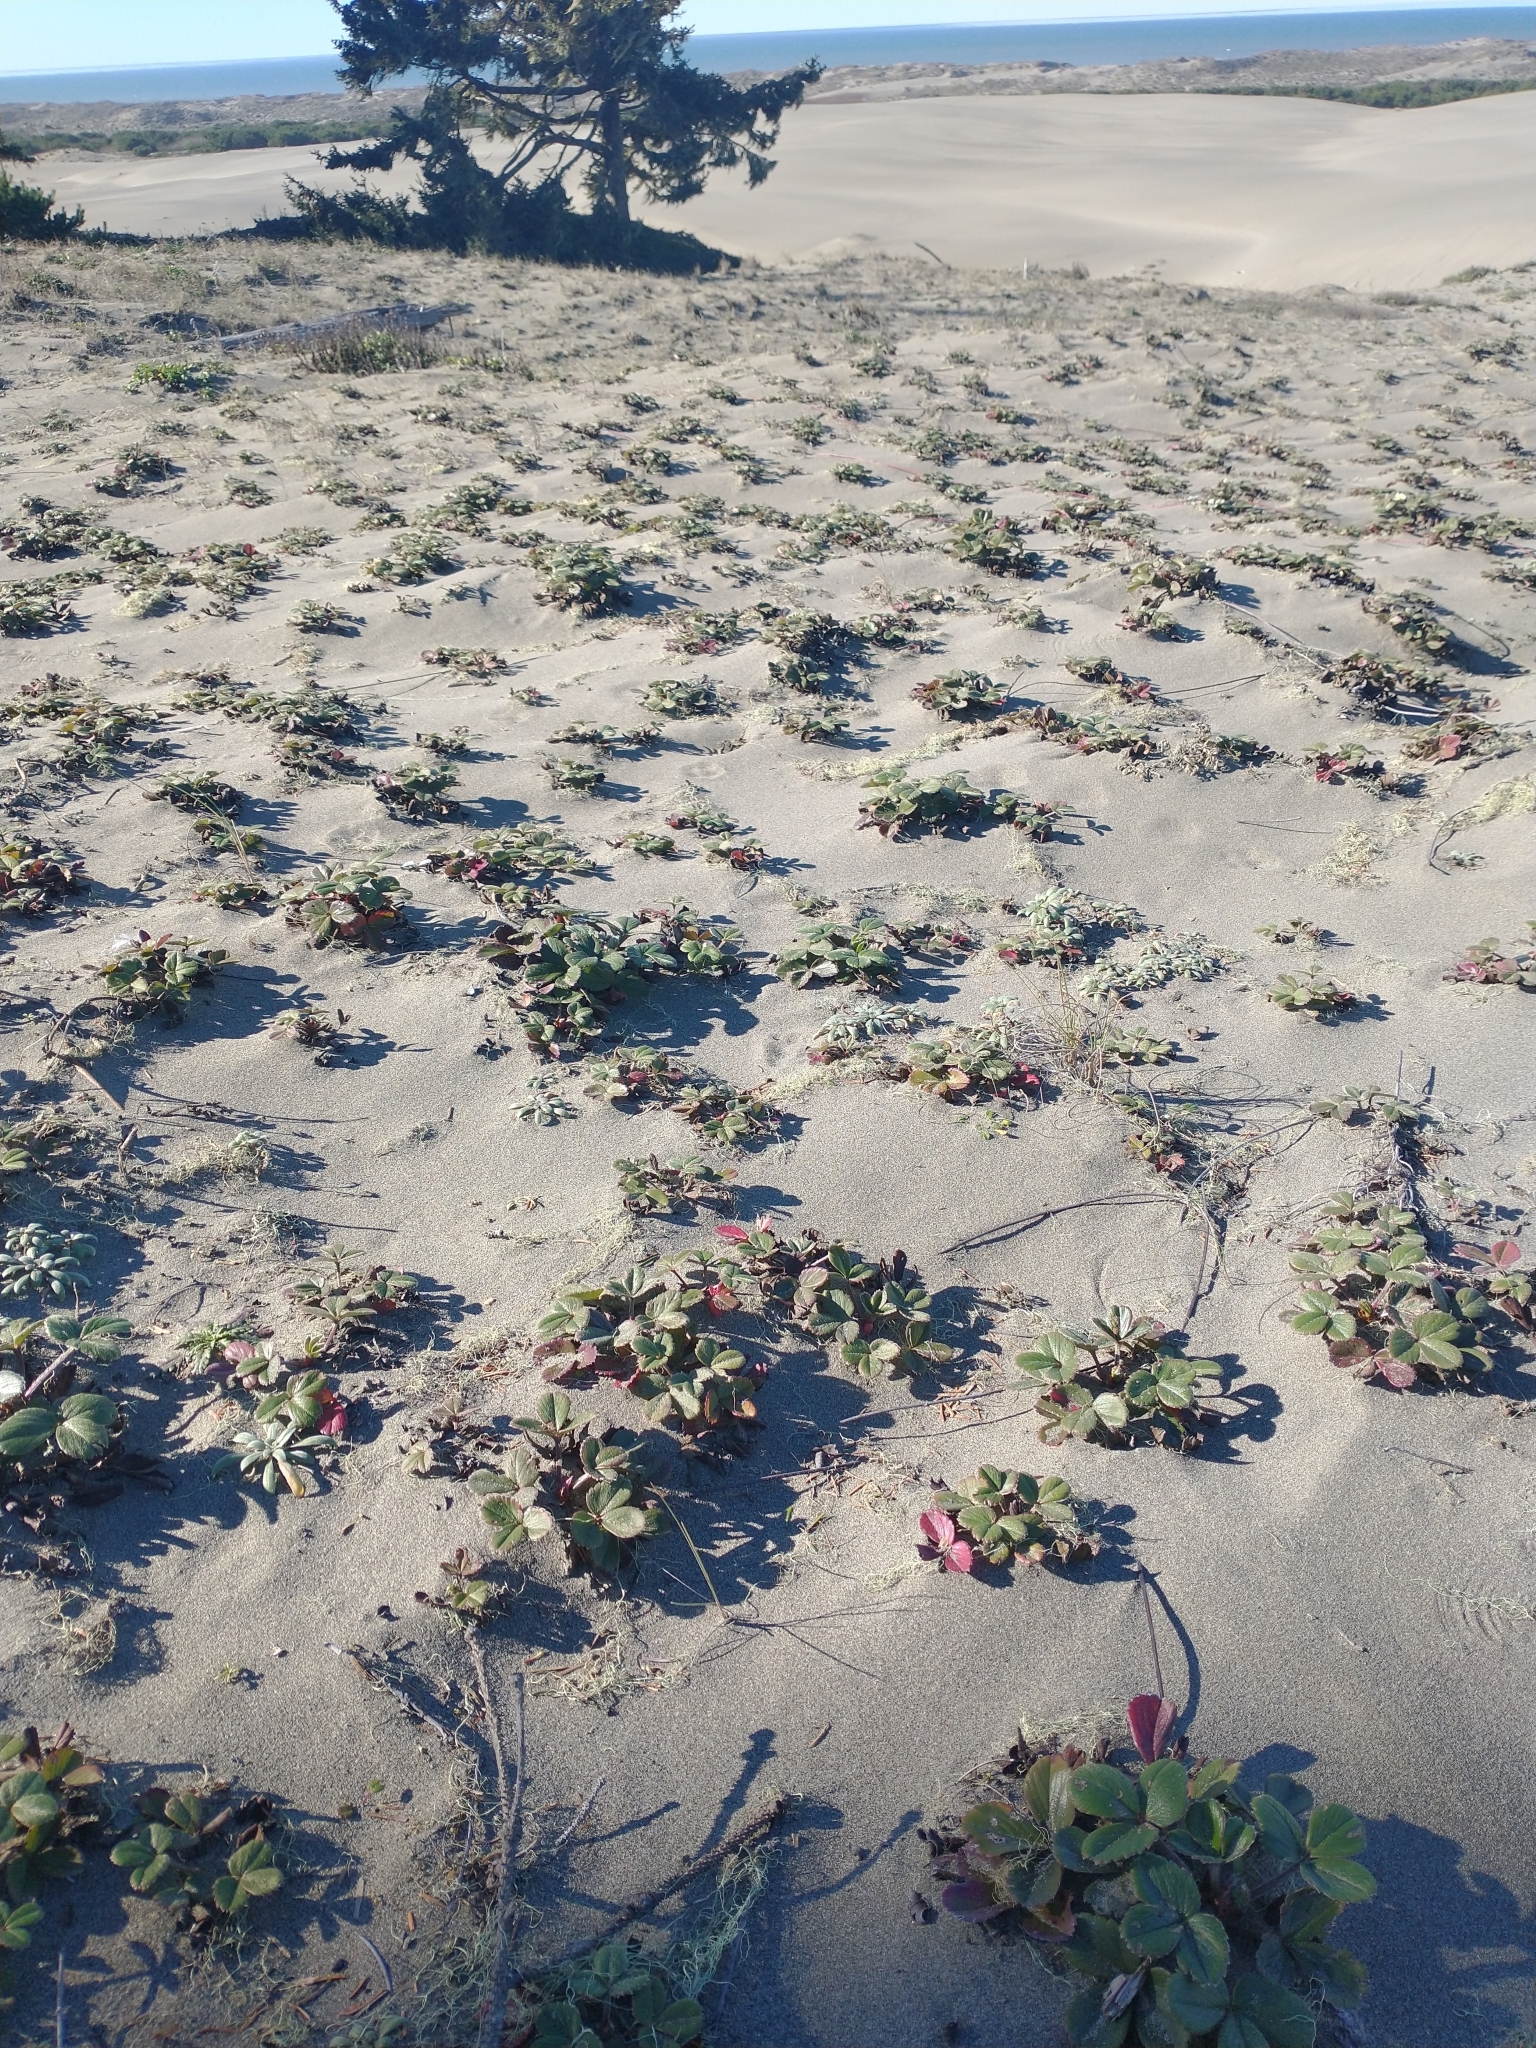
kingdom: Plantae
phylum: Tracheophyta
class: Magnoliopsida
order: Rosales
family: Rosaceae
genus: Fragaria
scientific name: Fragaria chiloensis
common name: Beach strawberry
